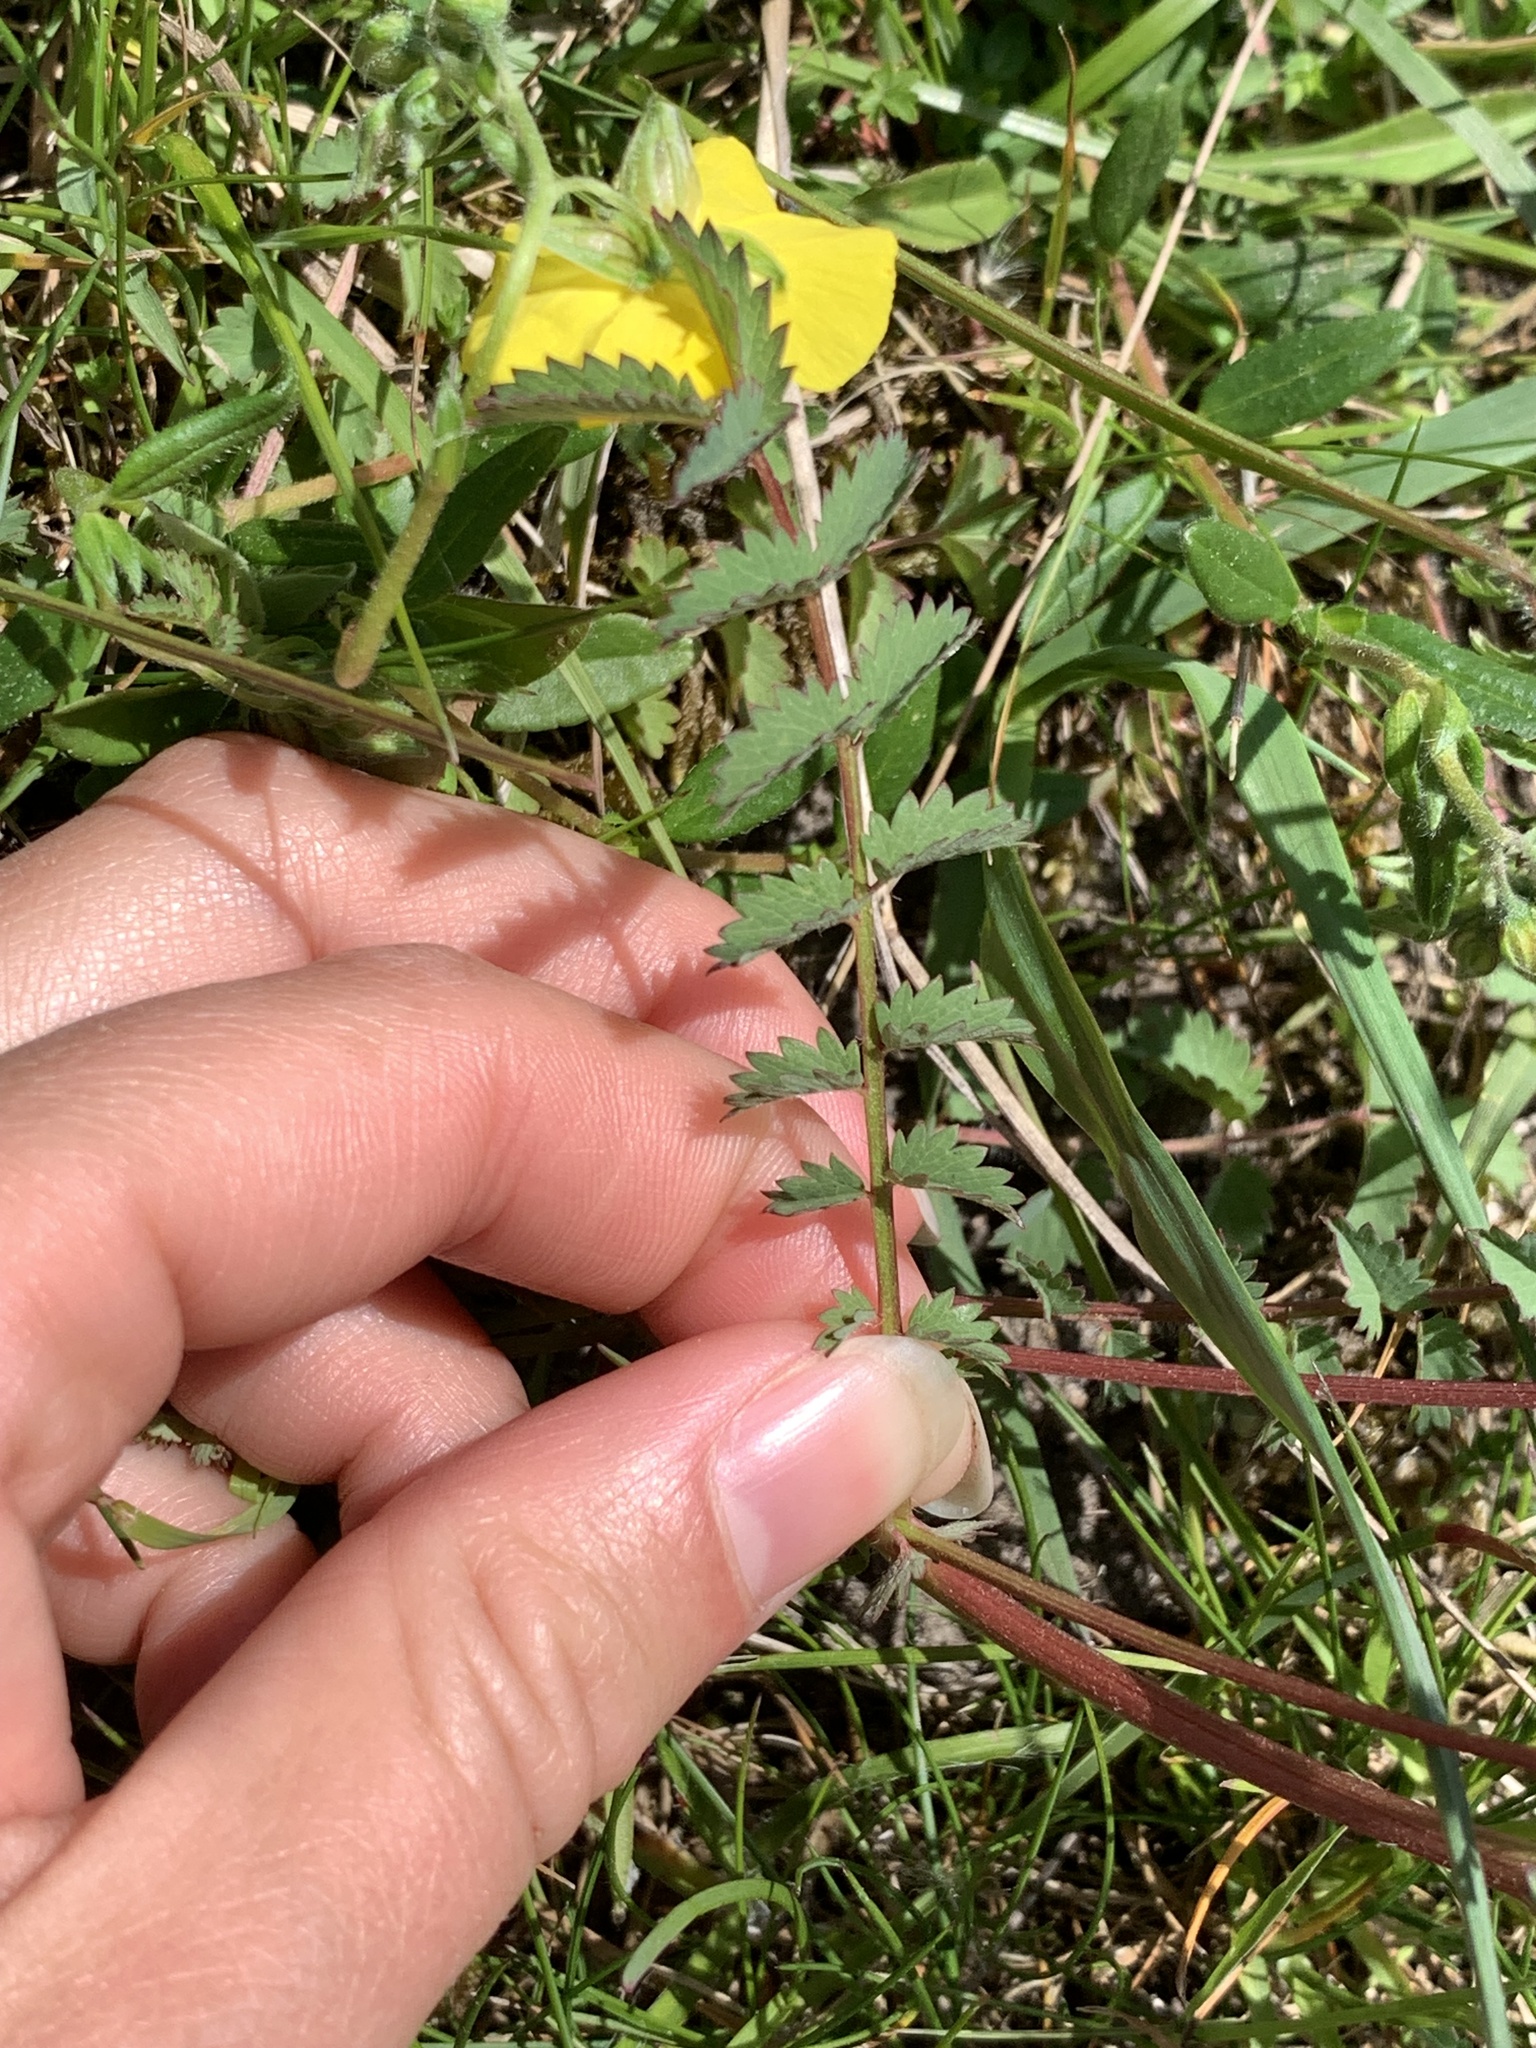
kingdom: Plantae
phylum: Tracheophyta
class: Magnoliopsida
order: Rosales
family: Rosaceae
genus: Poterium
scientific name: Poterium sanguisorba
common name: Salad burnet
